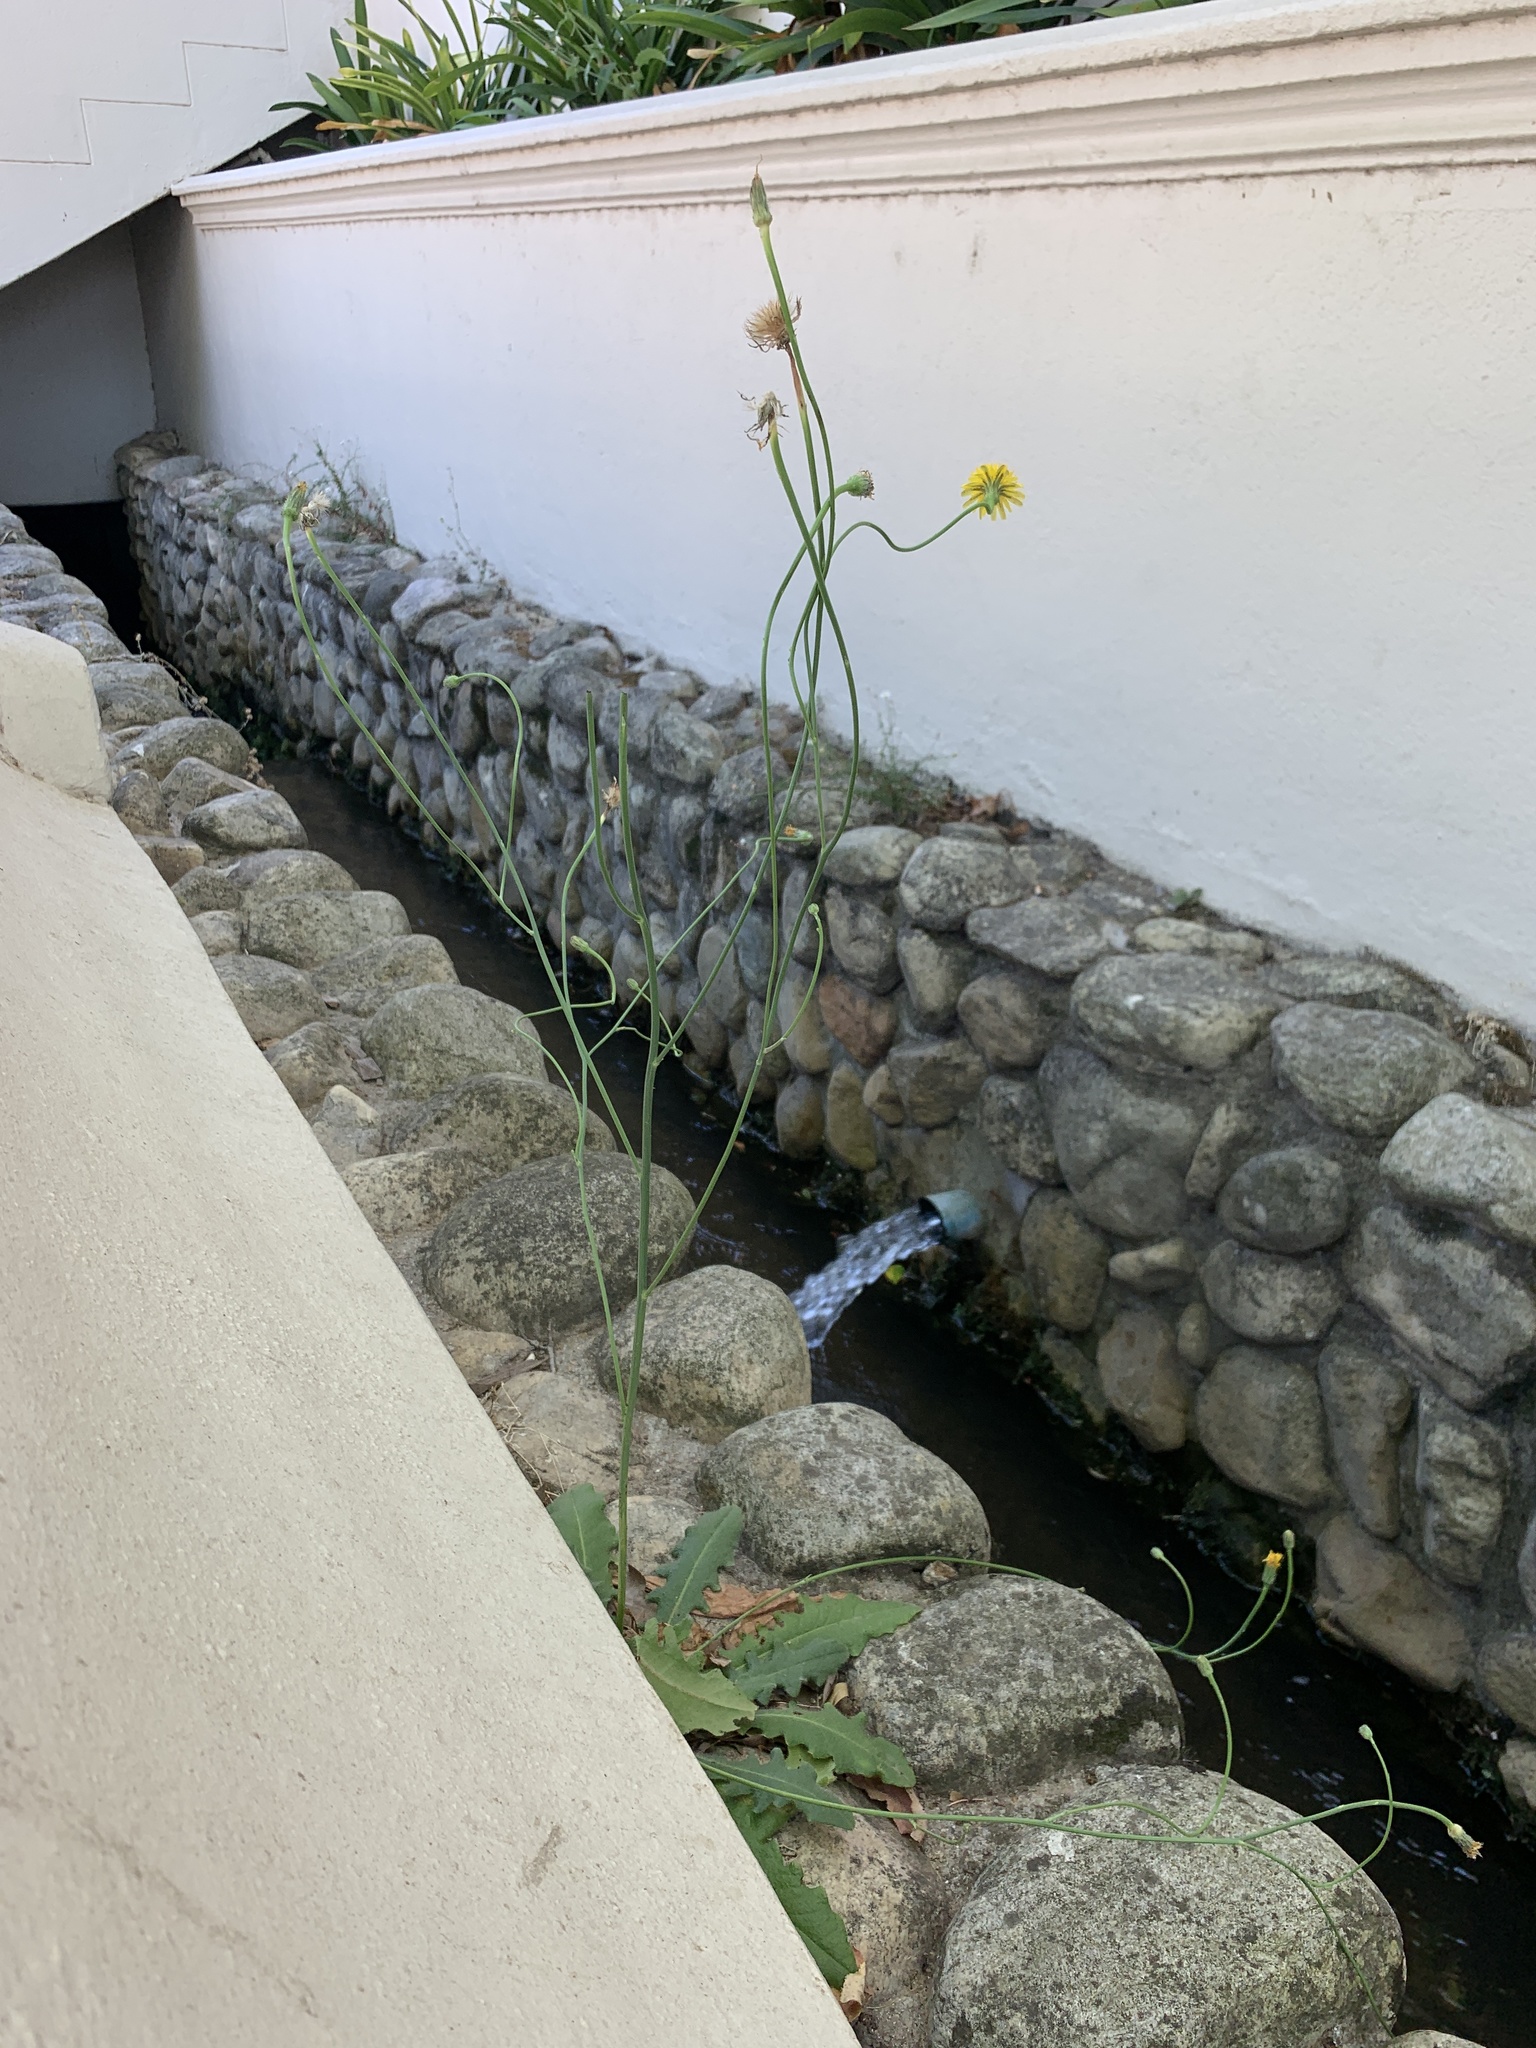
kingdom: Plantae
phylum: Tracheophyta
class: Magnoliopsida
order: Asterales
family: Asteraceae
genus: Hypochaeris
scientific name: Hypochaeris radicata
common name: Flatweed
